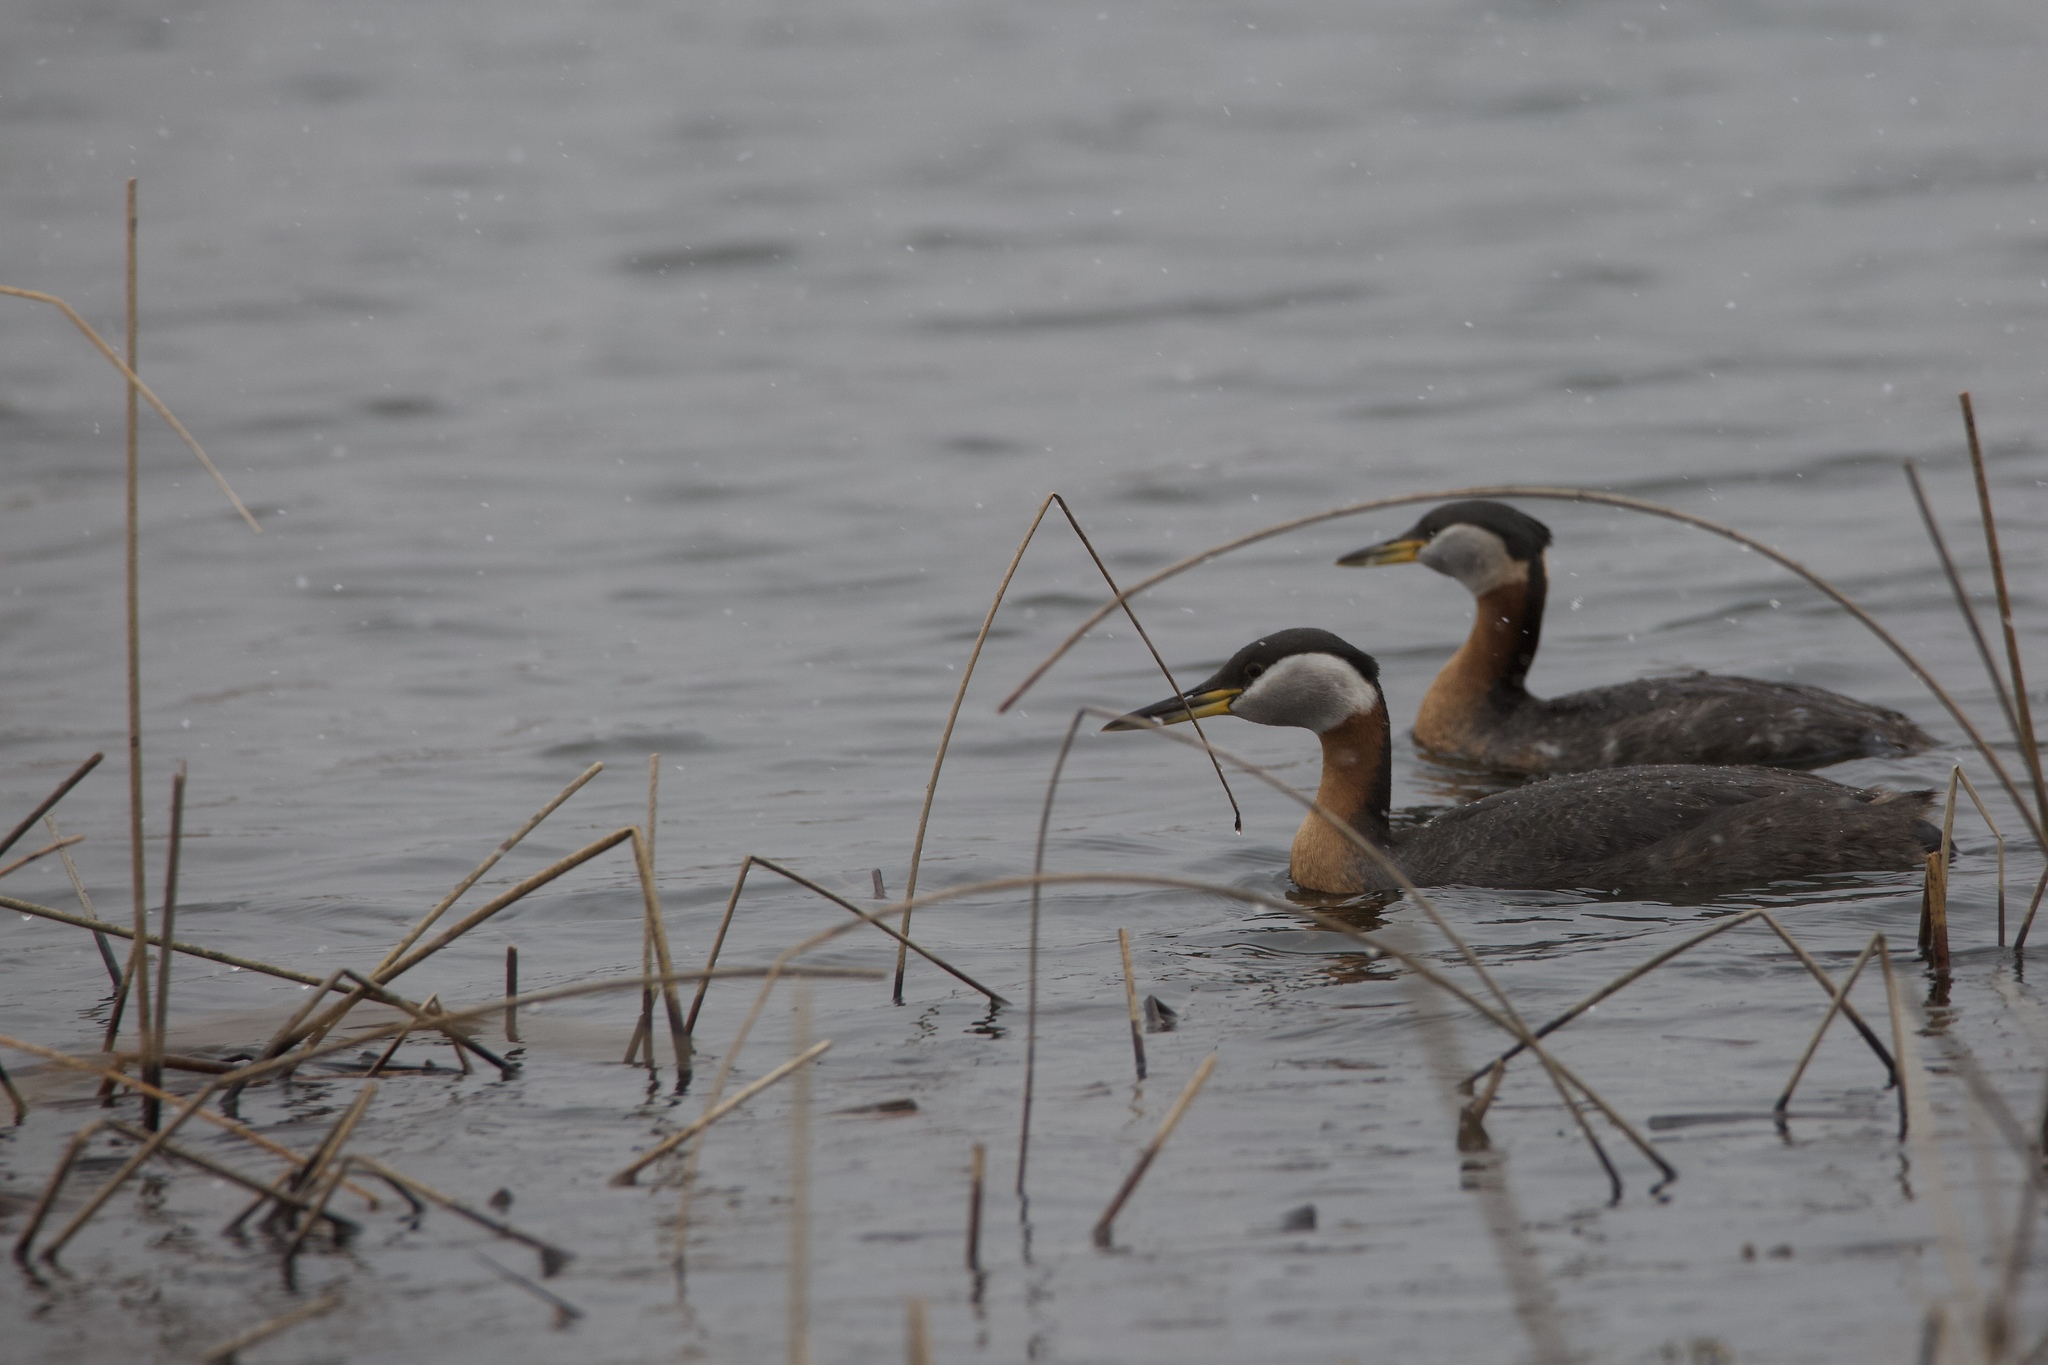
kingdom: Animalia
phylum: Chordata
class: Aves
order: Podicipediformes
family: Podicipedidae
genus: Podiceps
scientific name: Podiceps grisegena
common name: Red-necked grebe
